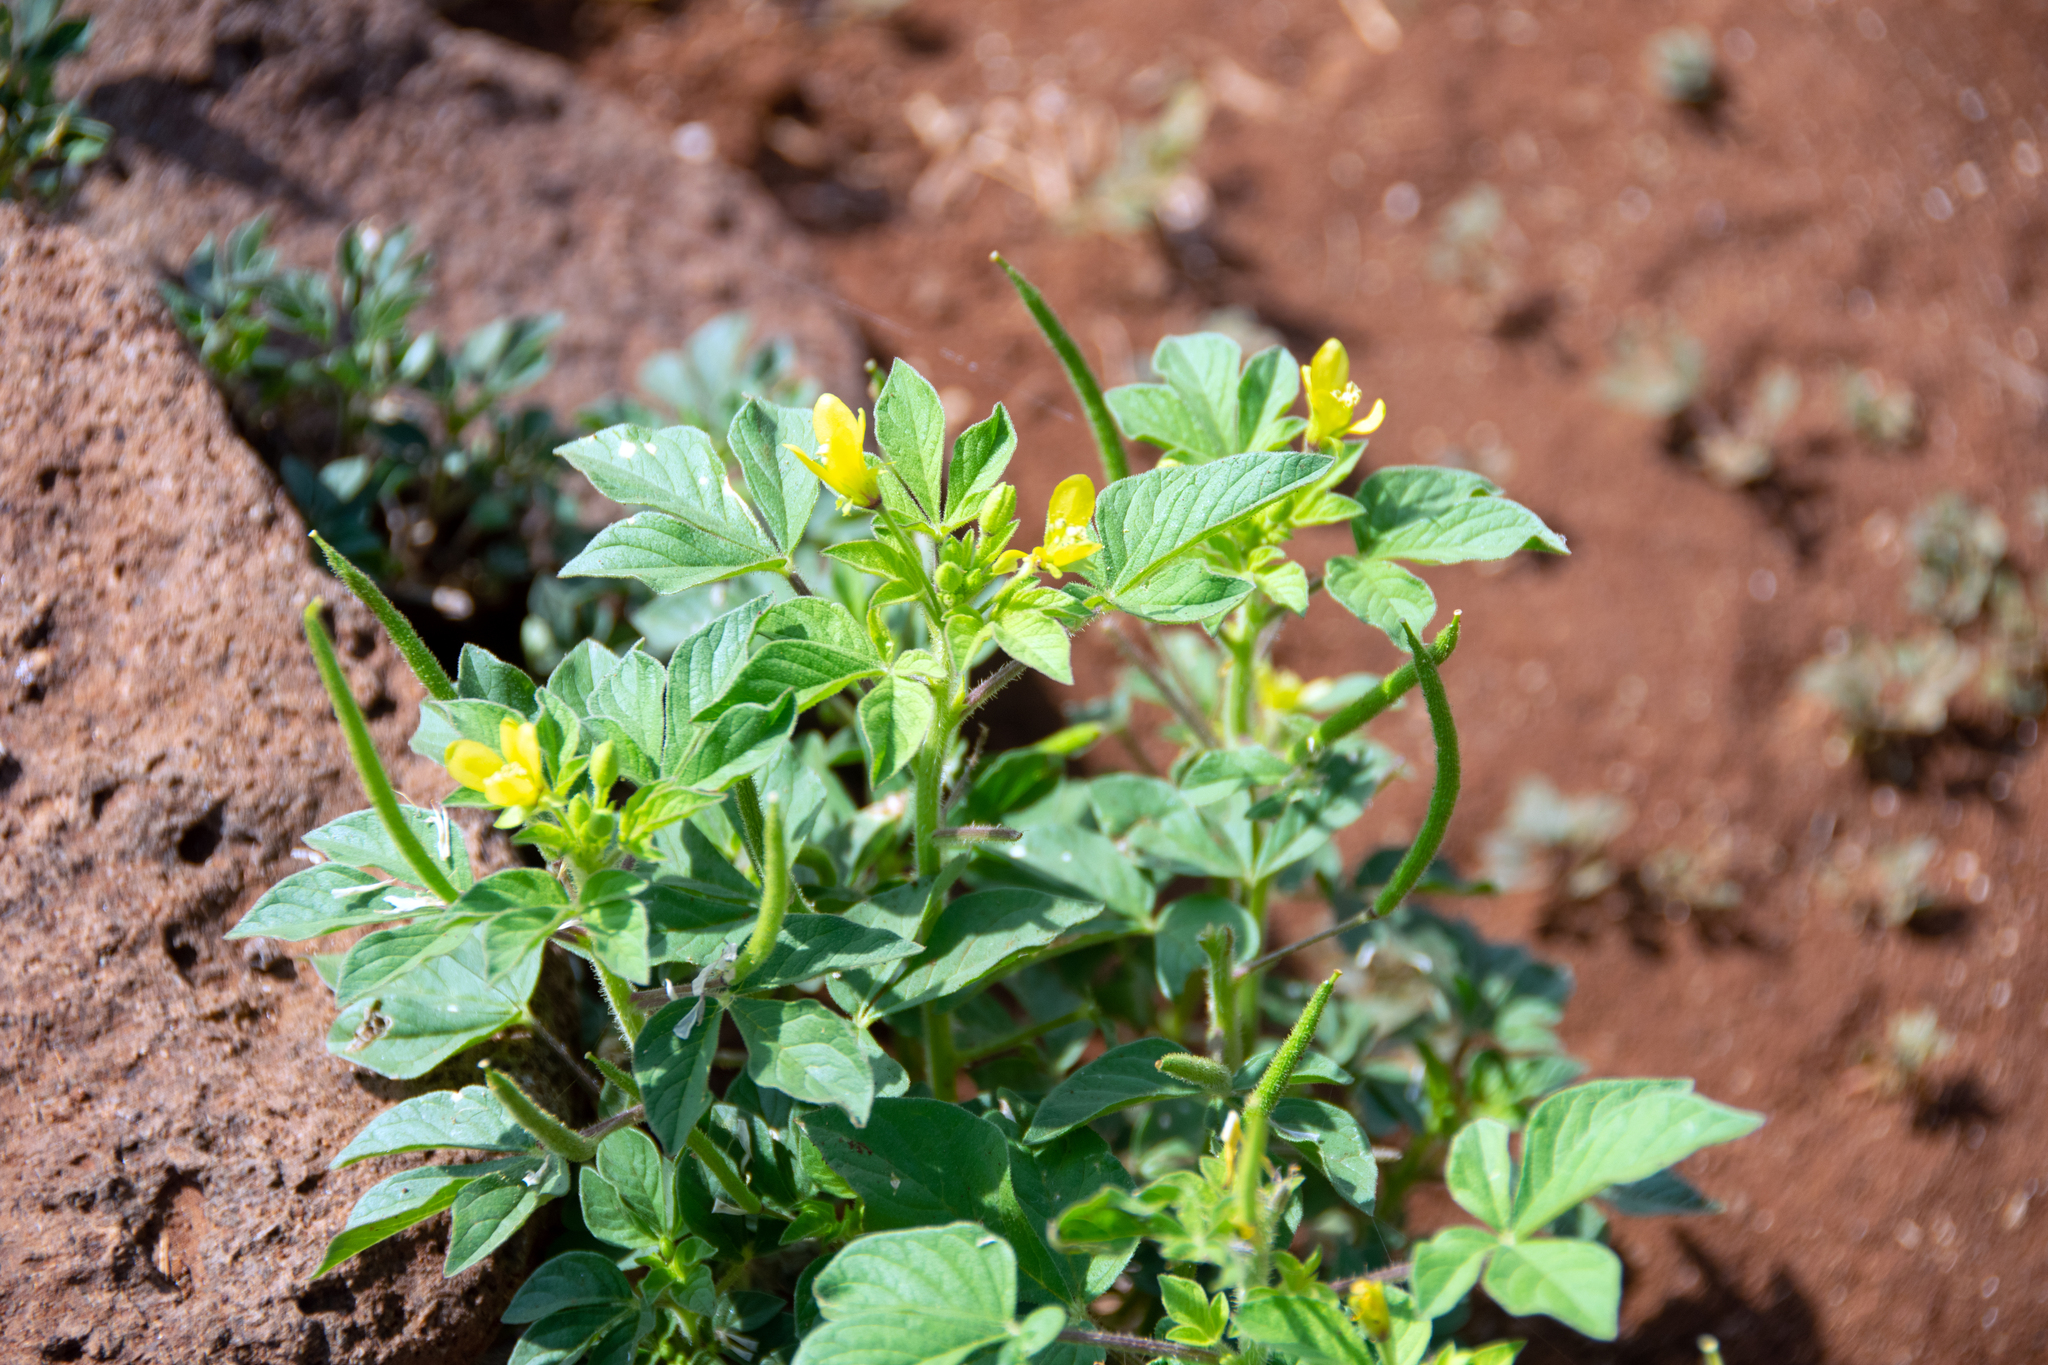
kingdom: Plantae
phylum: Tracheophyta
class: Magnoliopsida
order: Brassicales
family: Cleomaceae
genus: Arivela
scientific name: Arivela viscosa
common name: Asian spiderflower
